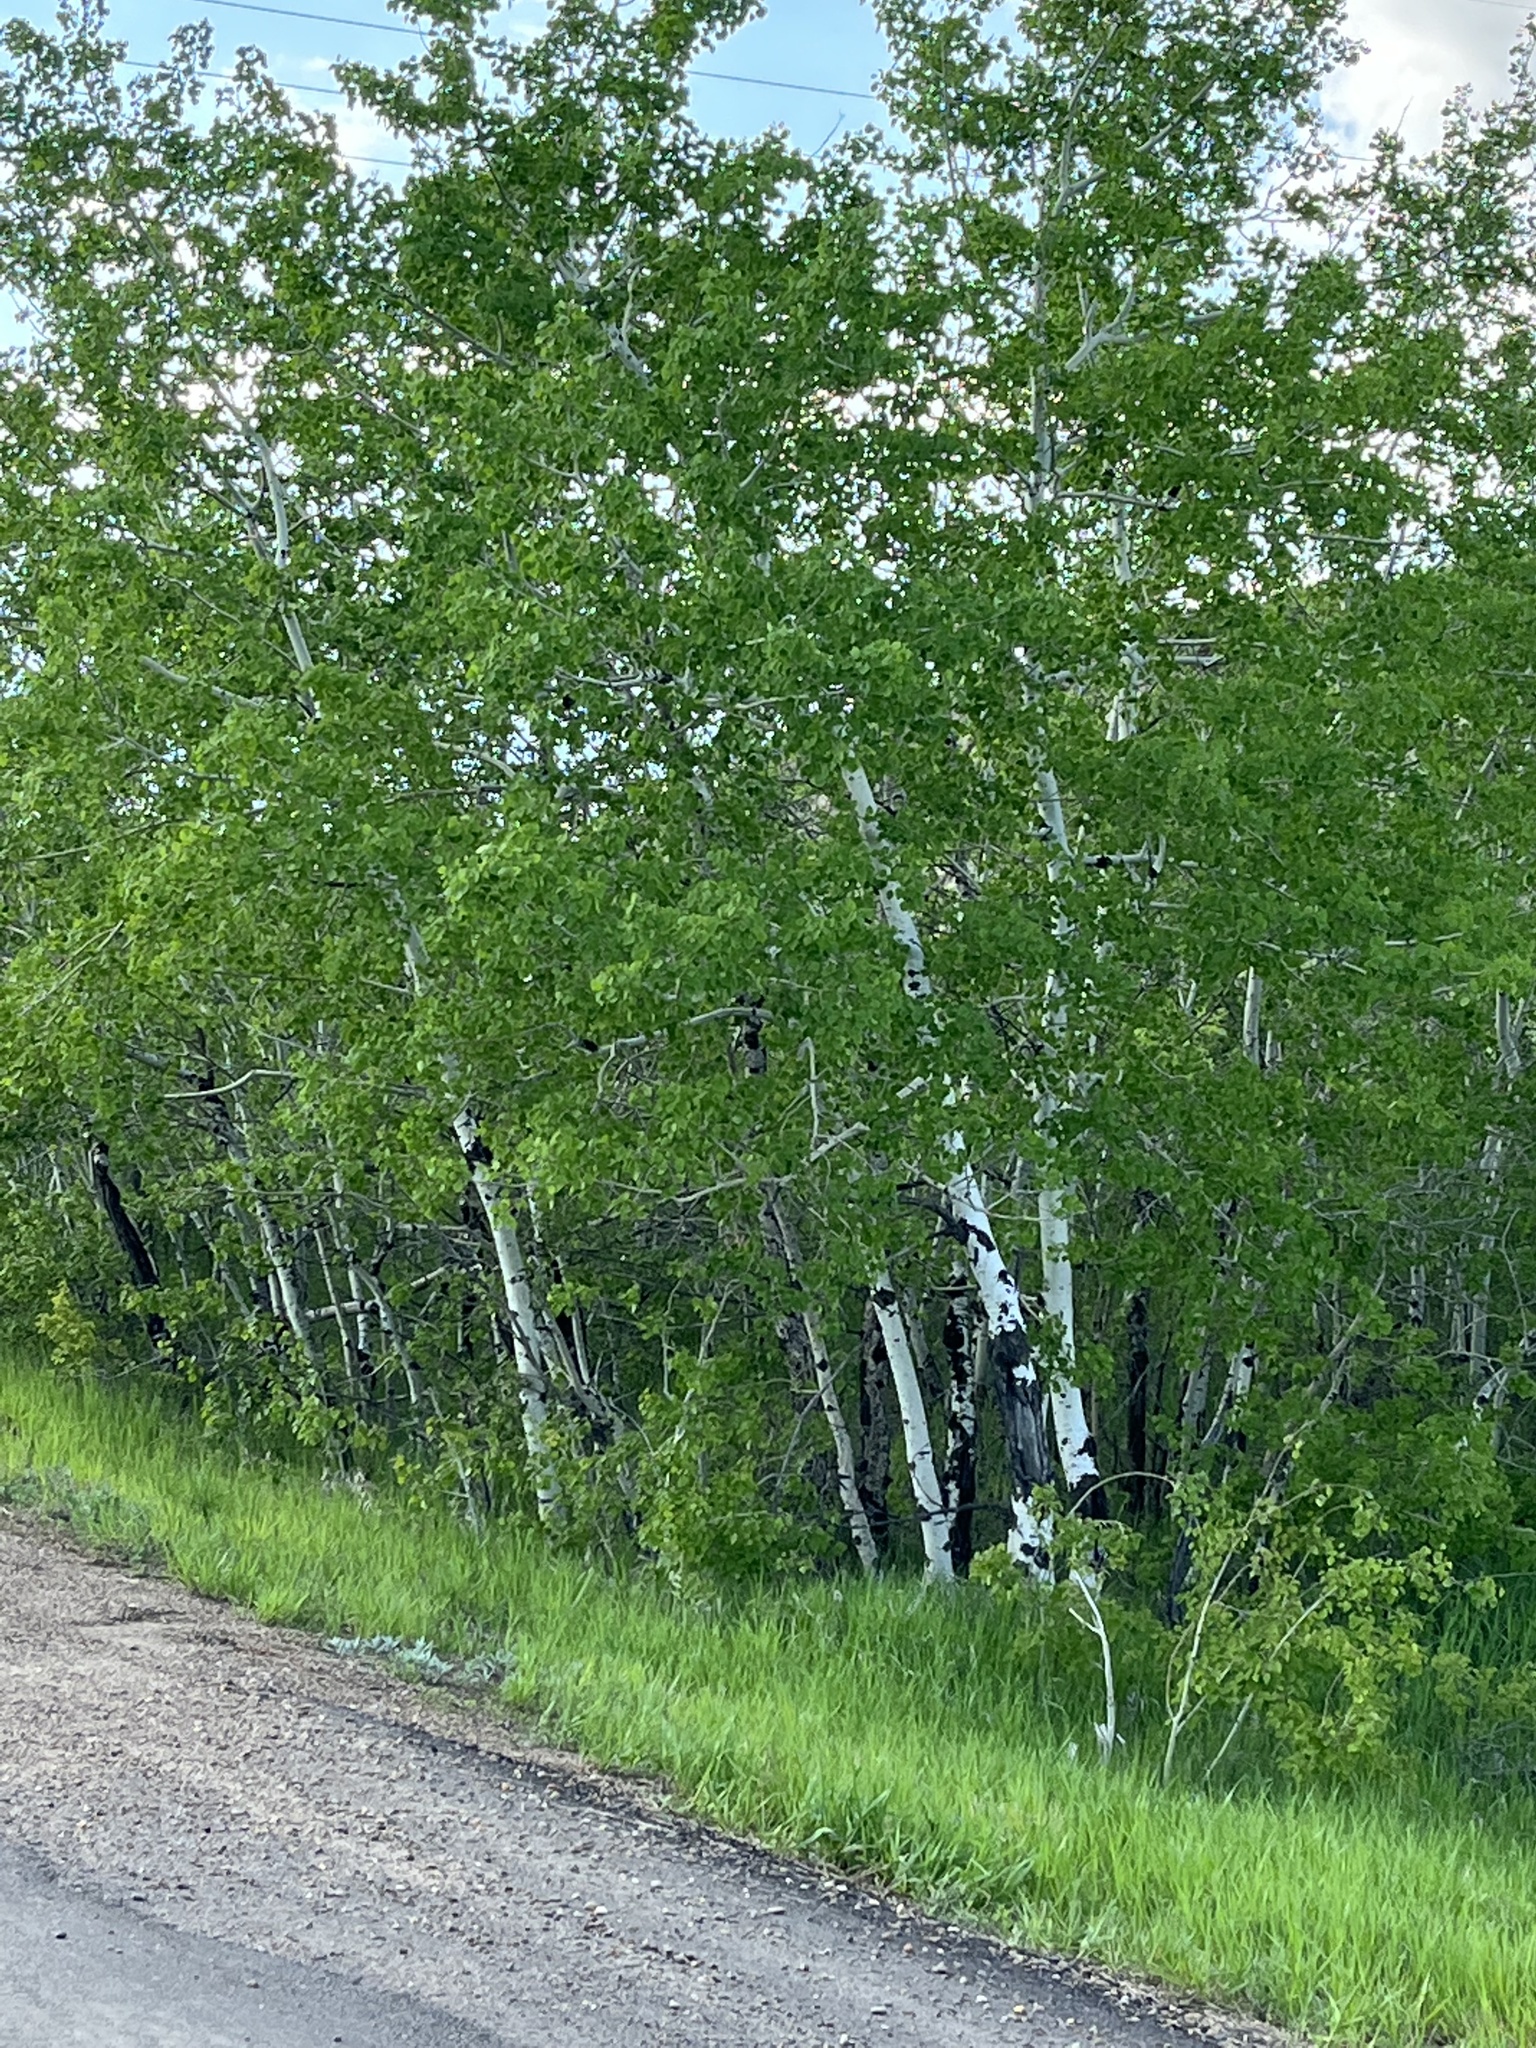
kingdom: Plantae
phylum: Tracheophyta
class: Magnoliopsida
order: Malpighiales
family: Salicaceae
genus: Populus
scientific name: Populus tremuloides
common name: Quaking aspen
